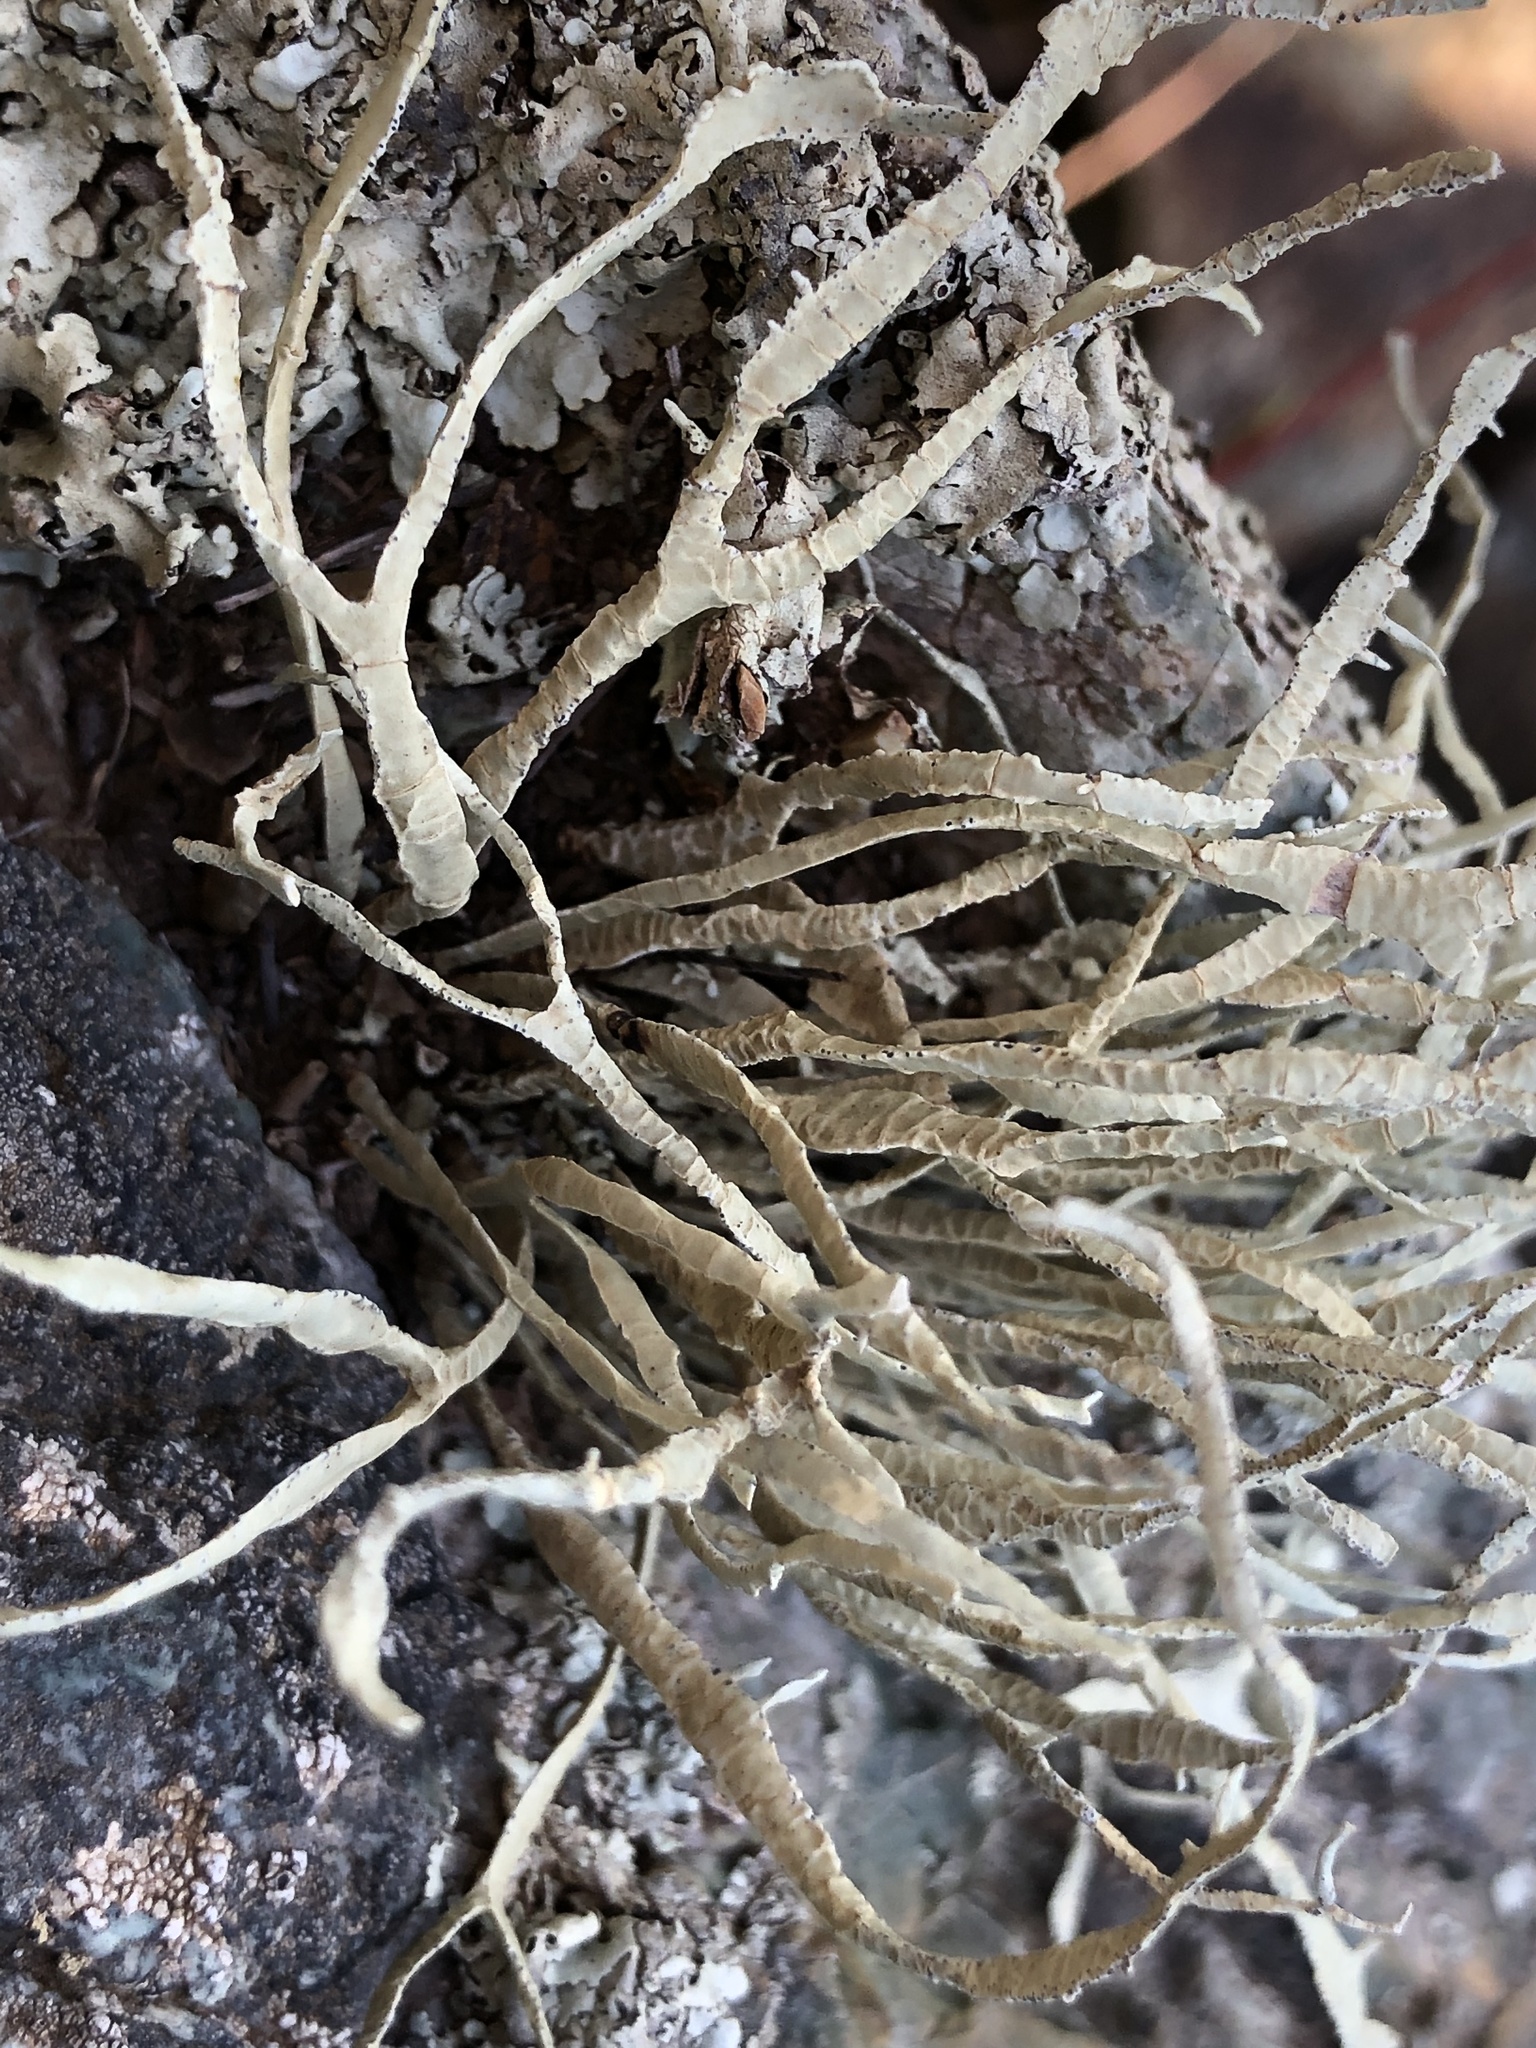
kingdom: Fungi
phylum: Ascomycota
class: Lecanoromycetes
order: Lecanorales
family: Ramalinaceae
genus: Niebla
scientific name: Niebla homalea
